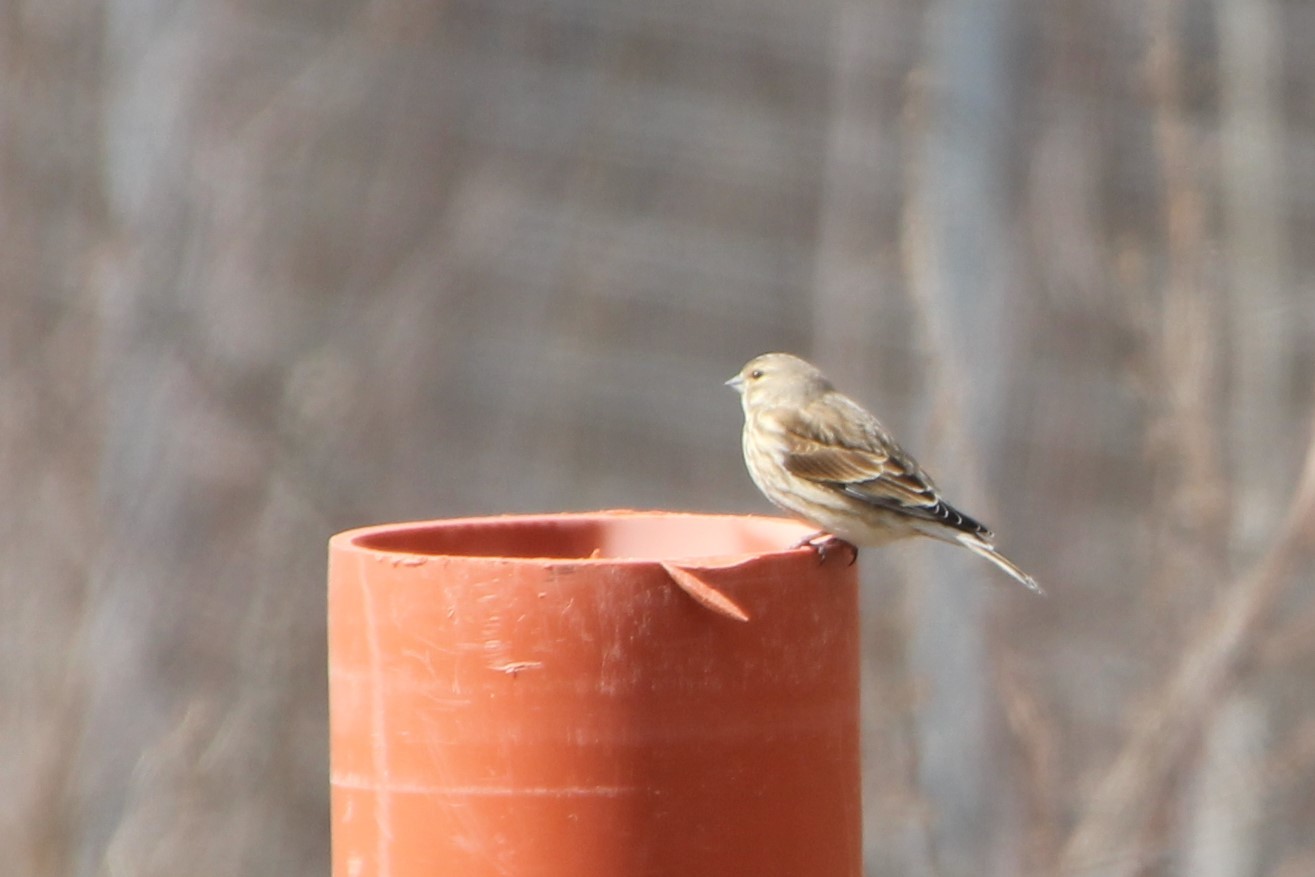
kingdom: Animalia
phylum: Chordata
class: Aves
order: Passeriformes
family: Fringillidae
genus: Linaria
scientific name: Linaria cannabina
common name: Common linnet
